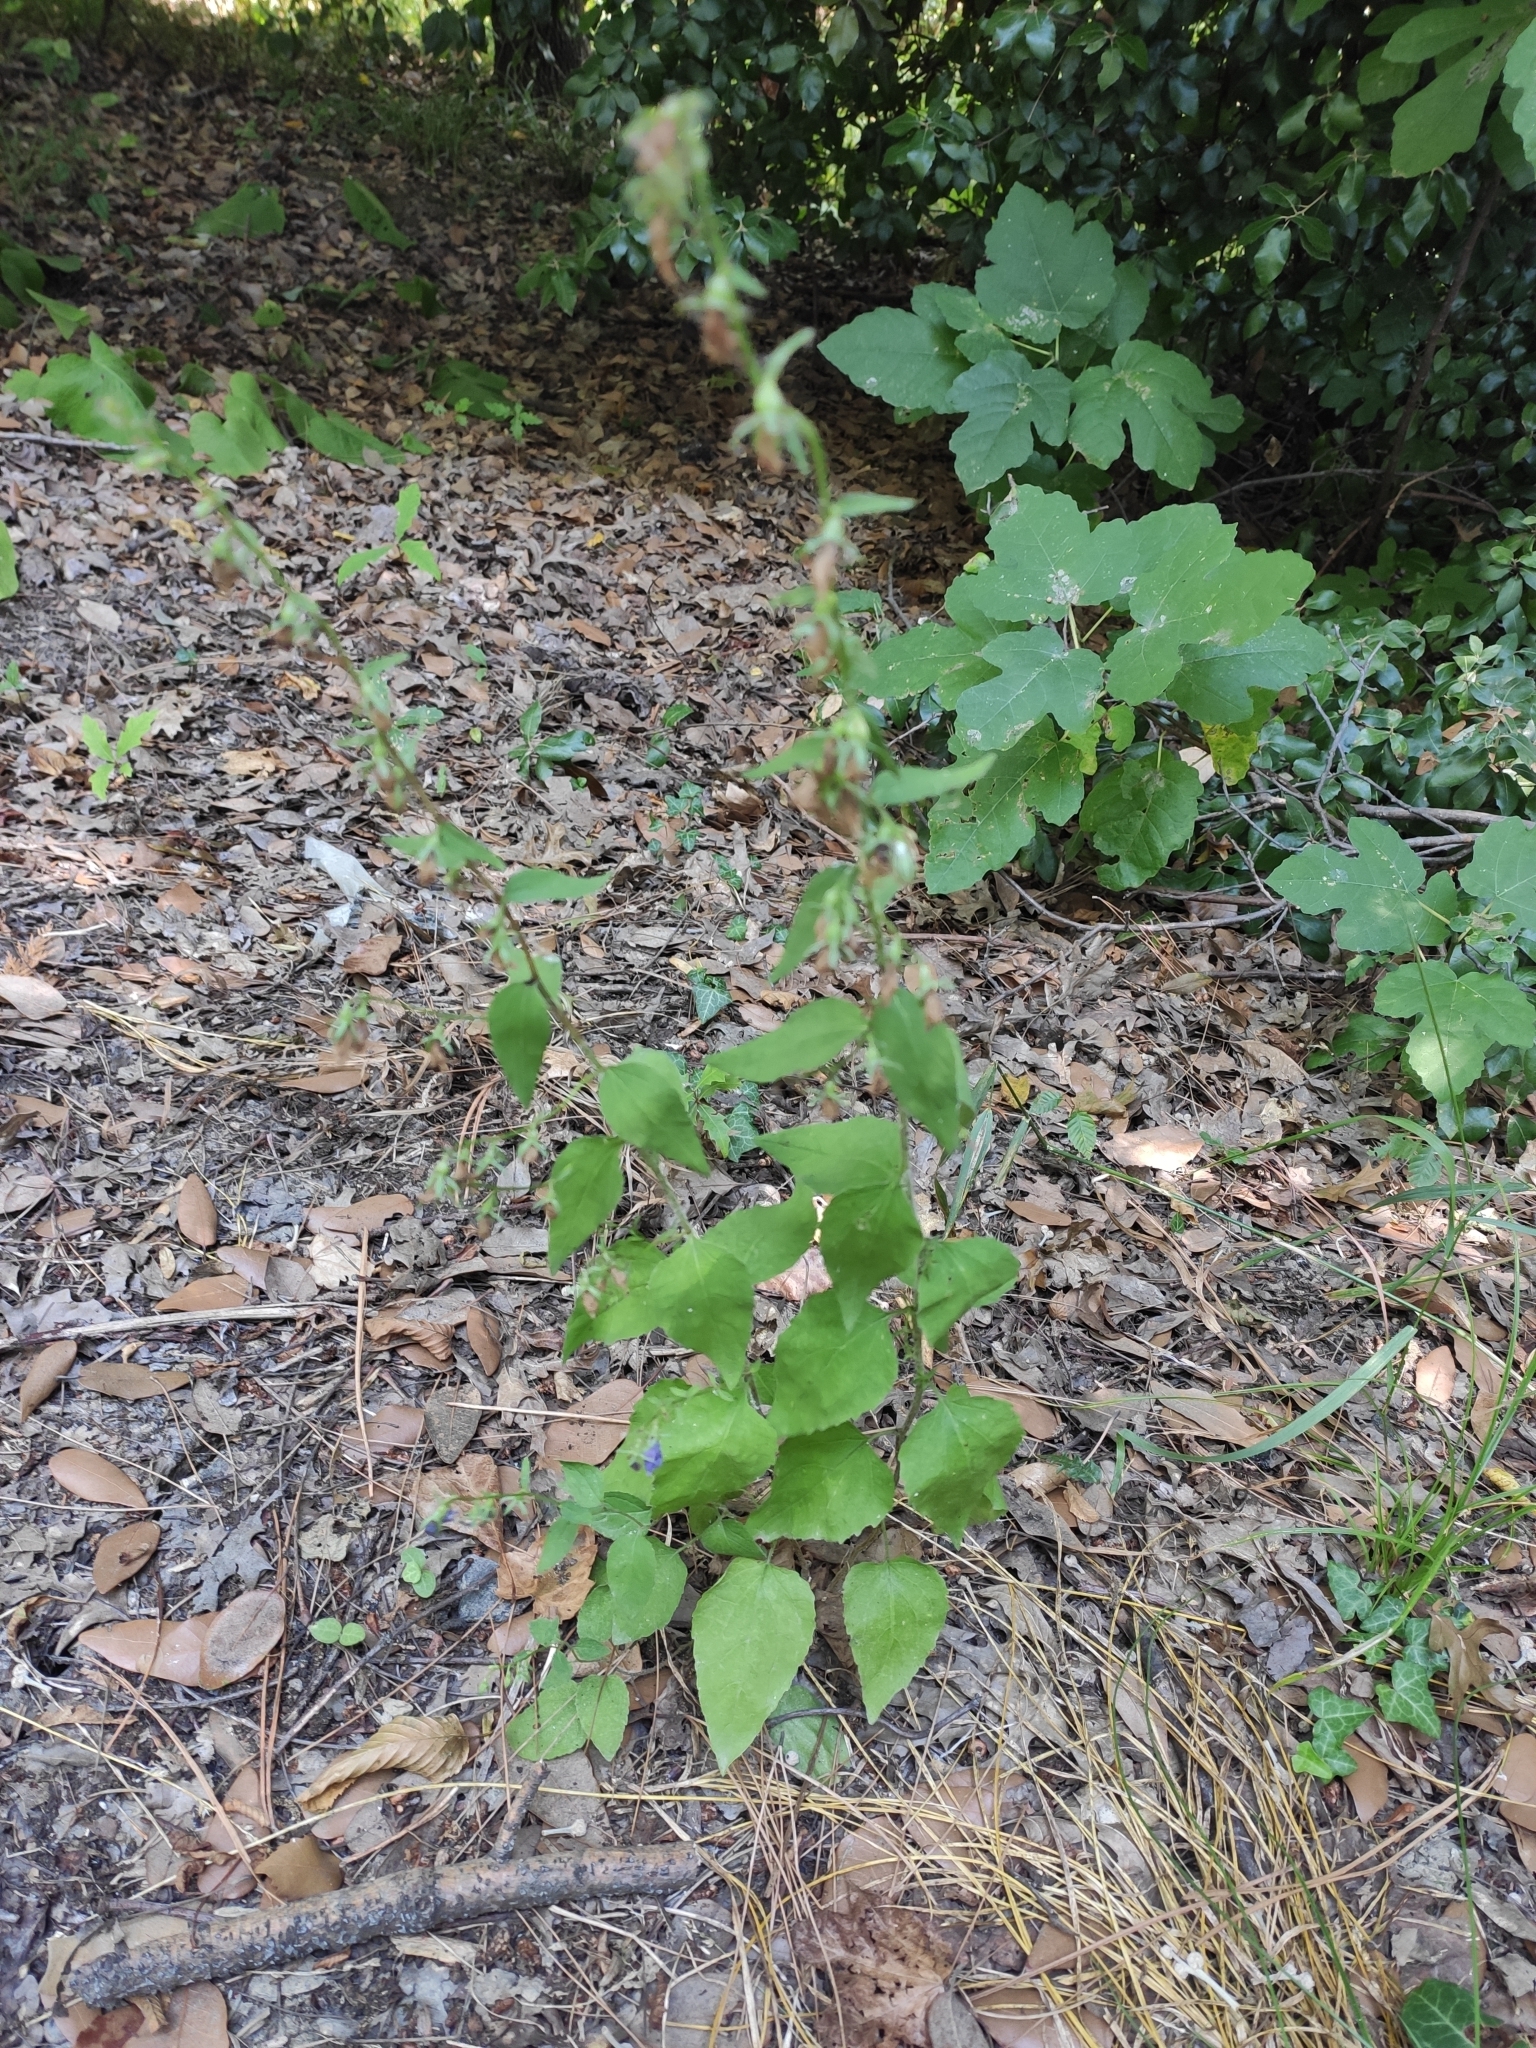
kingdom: Plantae
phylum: Tracheophyta
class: Magnoliopsida
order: Asterales
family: Campanulaceae
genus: Campanula
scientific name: Campanula rapunculoides
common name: Creeping bellflower
